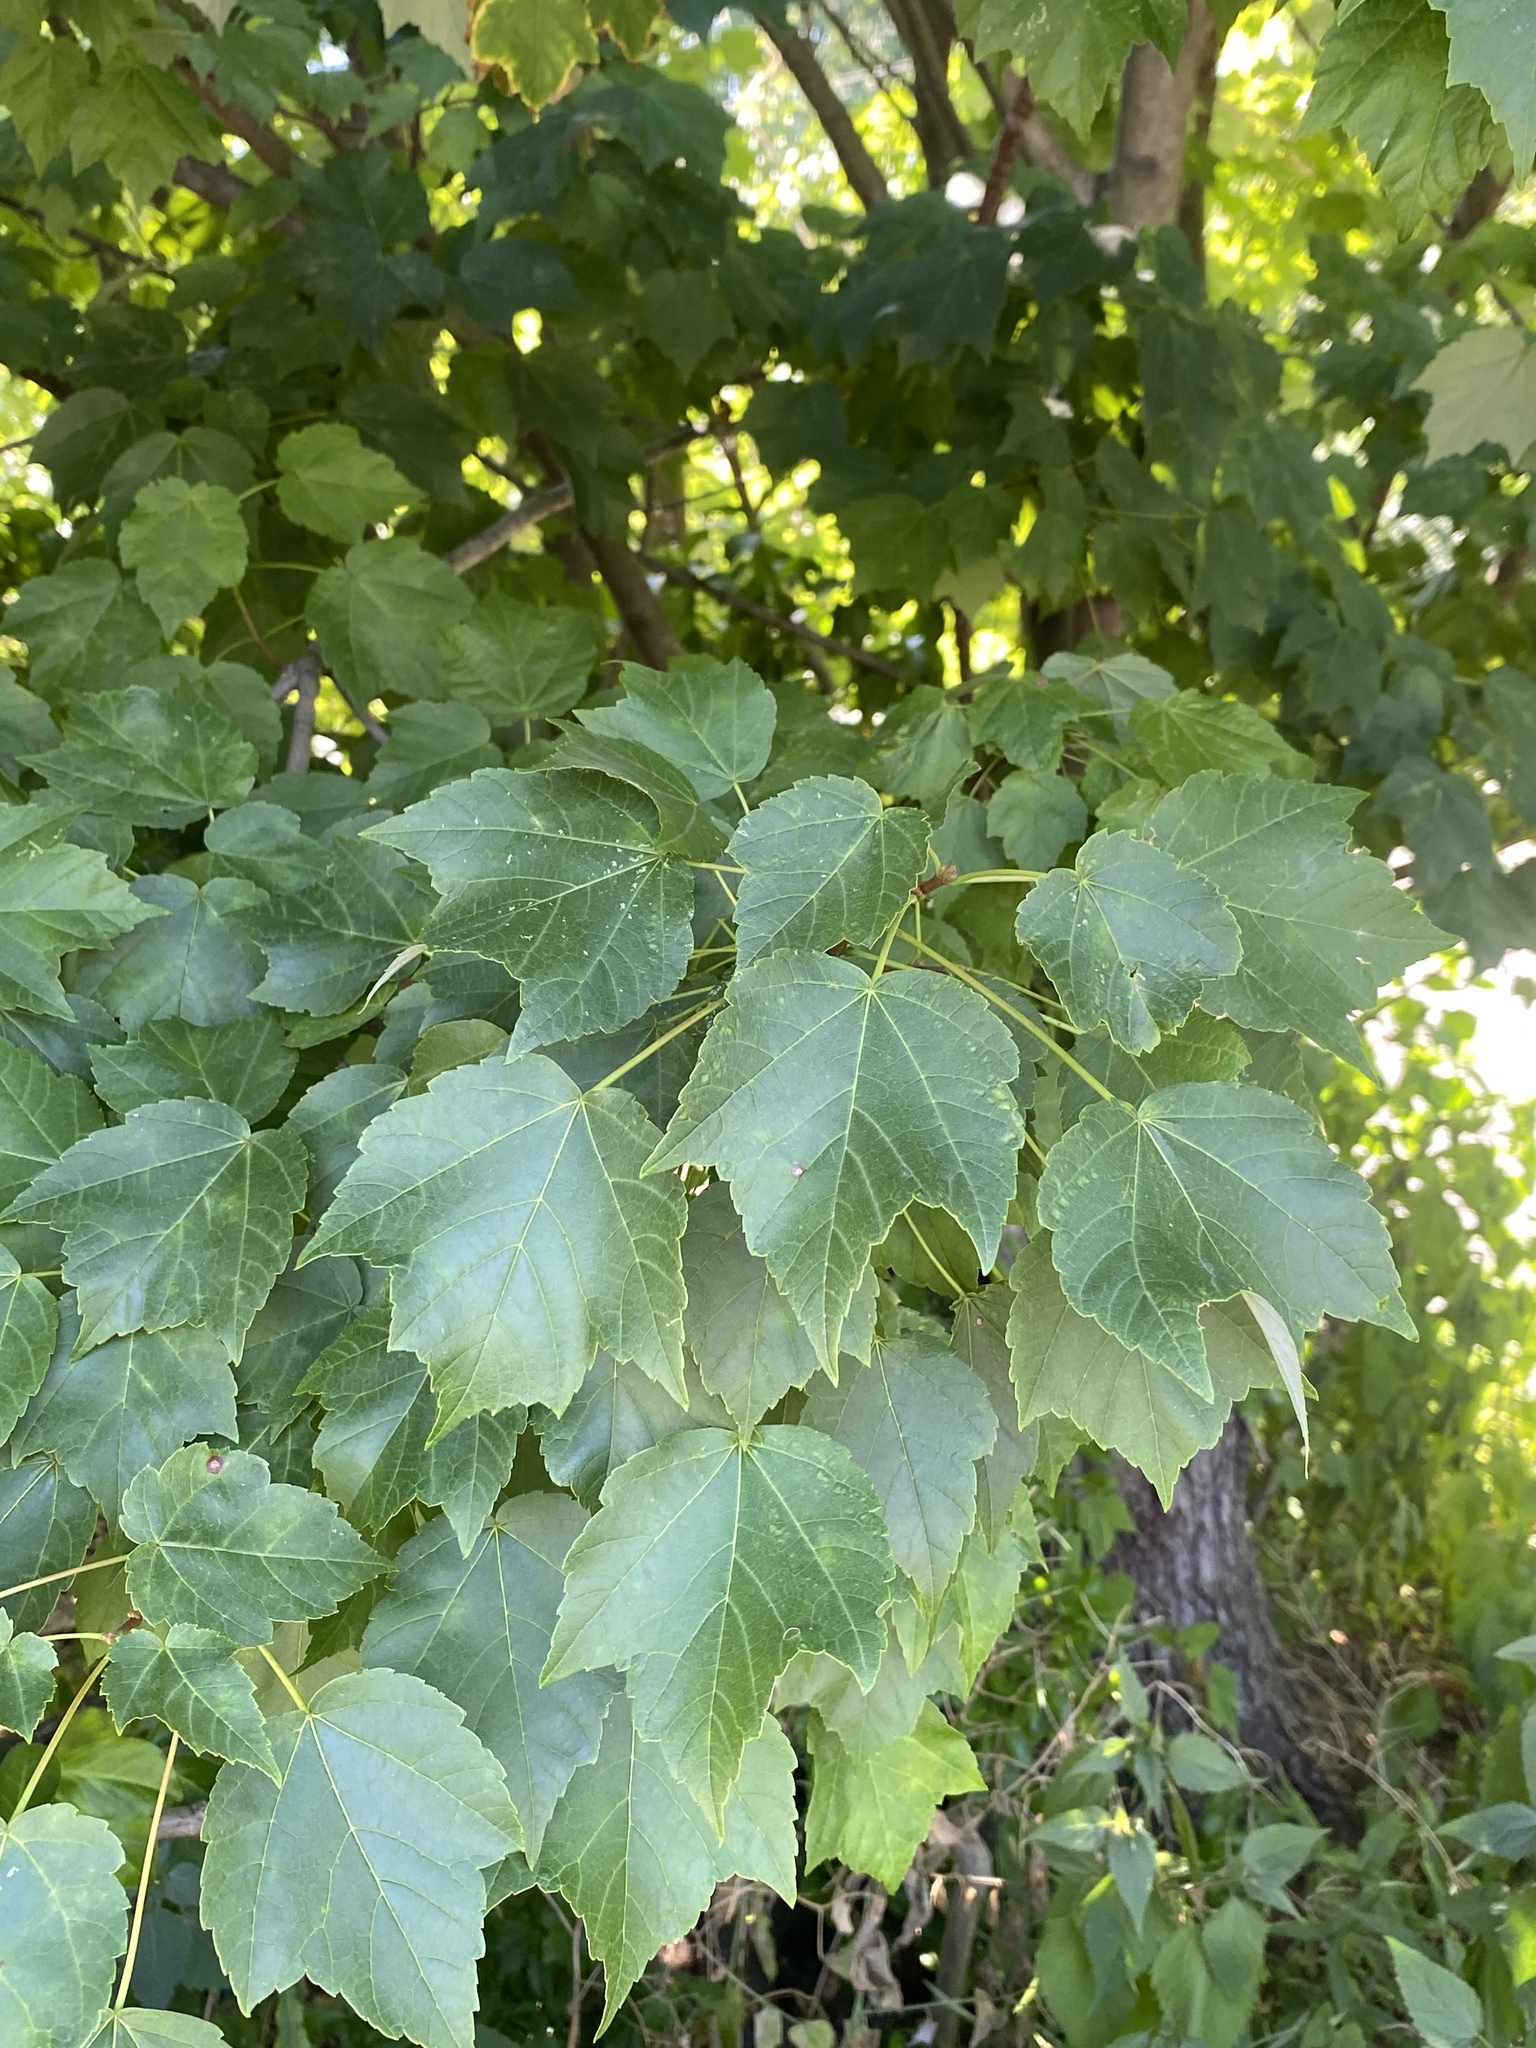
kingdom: Plantae
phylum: Tracheophyta
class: Magnoliopsida
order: Sapindales
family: Sapindaceae
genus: Acer
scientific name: Acer rubrum
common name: Red maple
